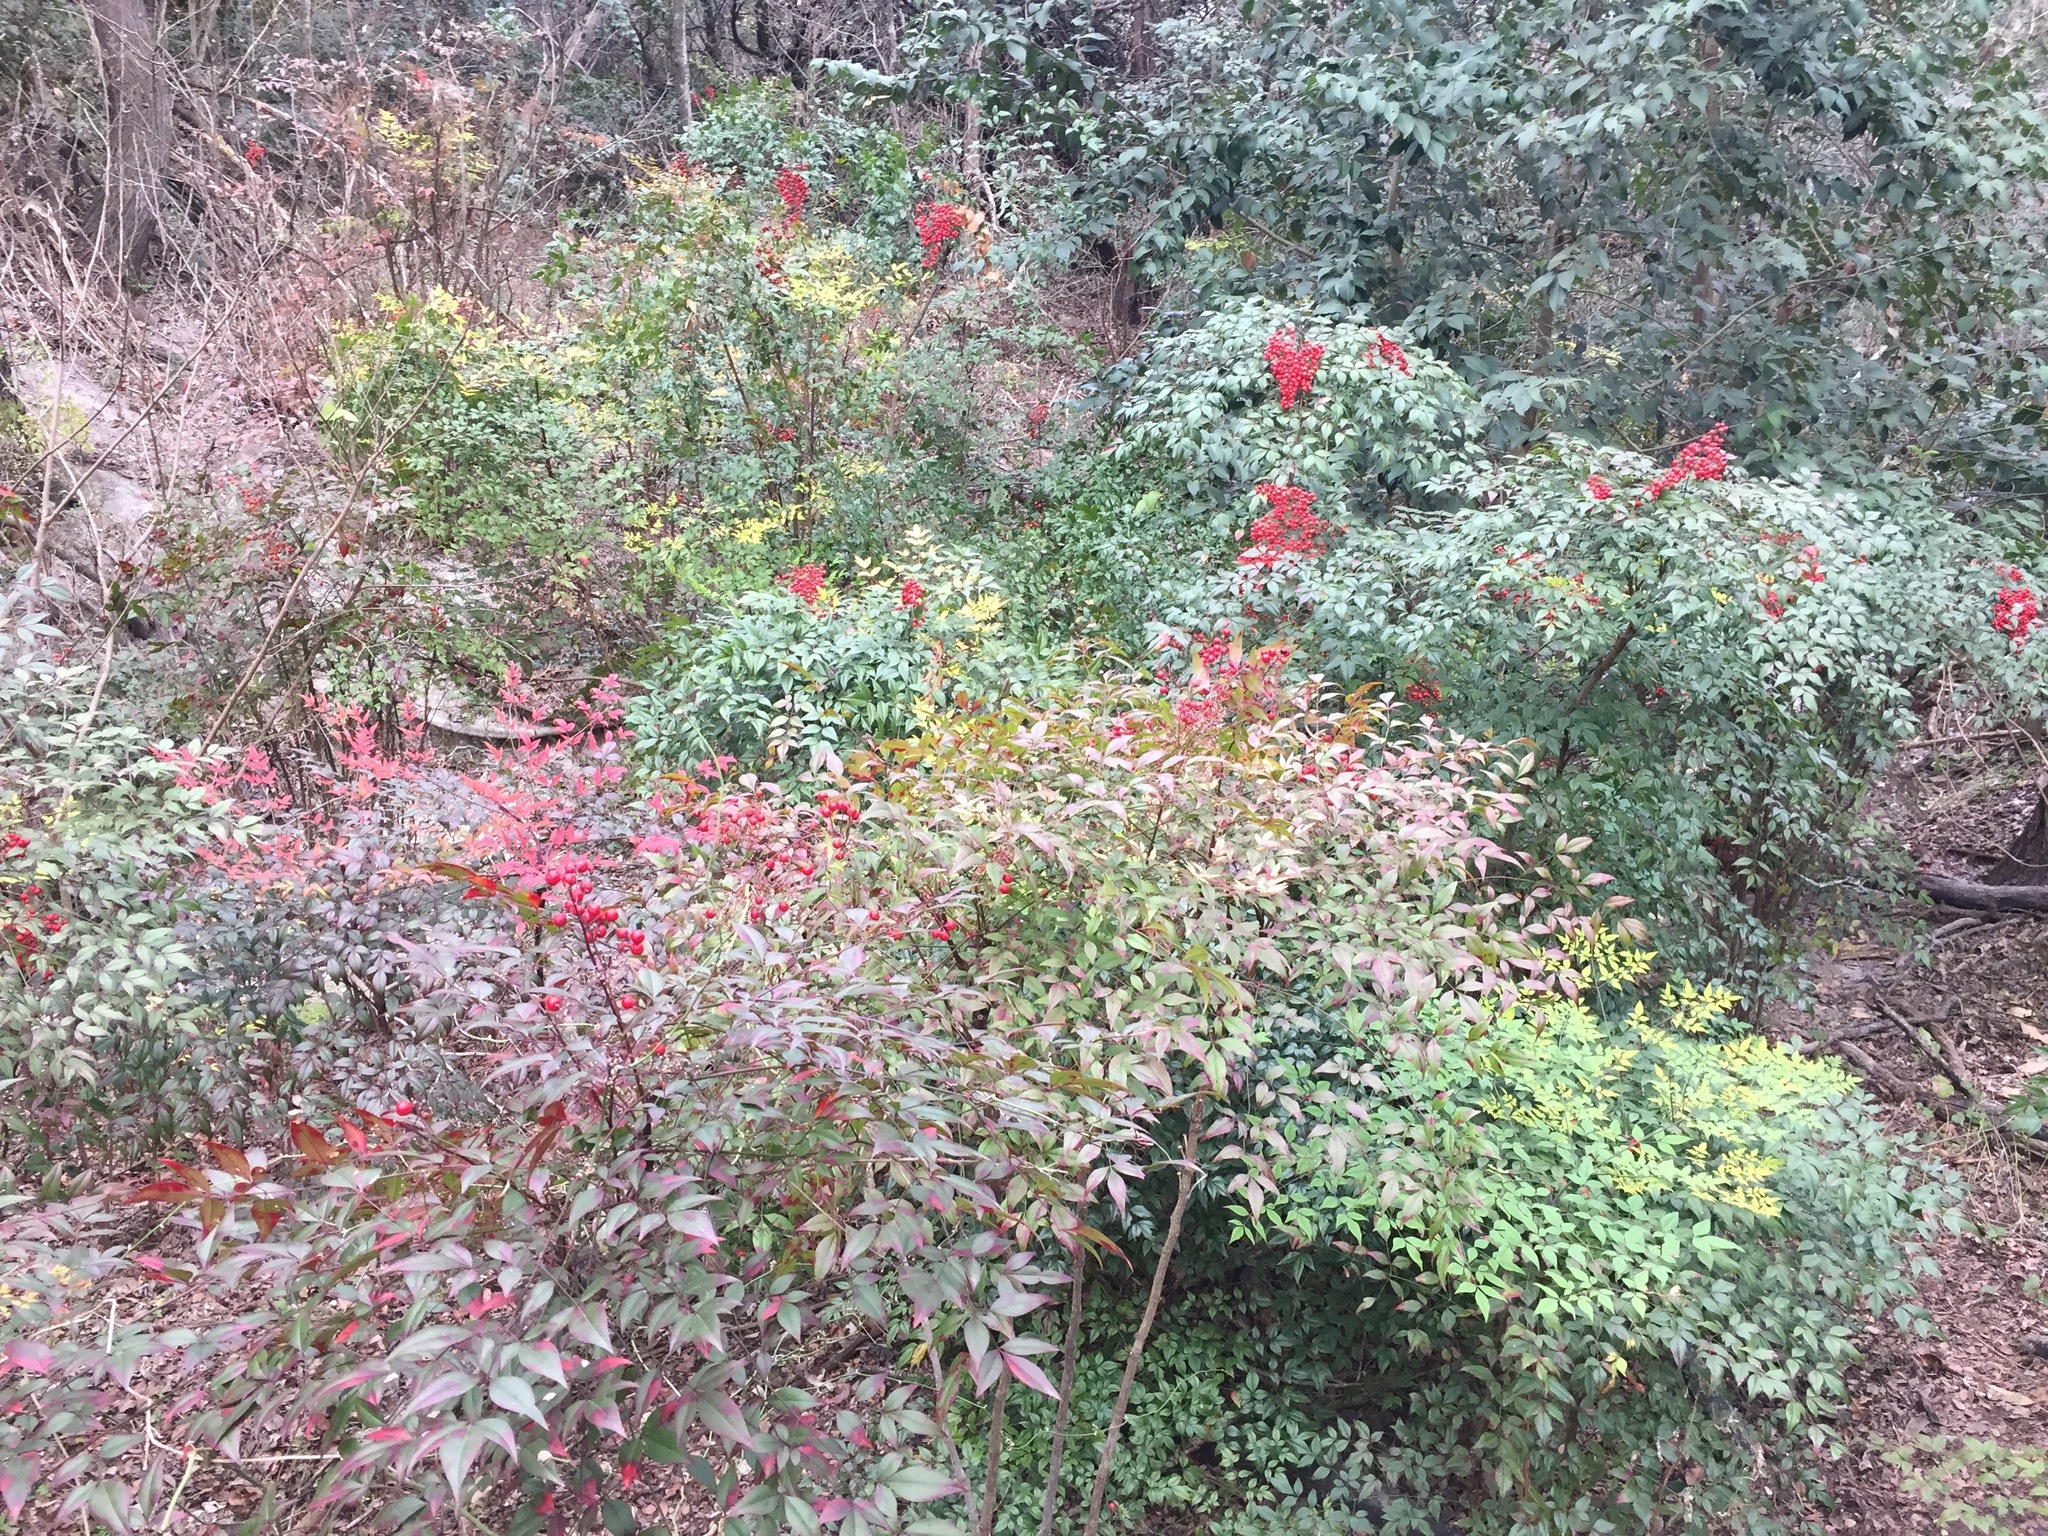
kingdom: Plantae
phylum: Tracheophyta
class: Magnoliopsida
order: Ranunculales
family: Berberidaceae
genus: Nandina
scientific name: Nandina domestica
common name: Sacred bamboo
